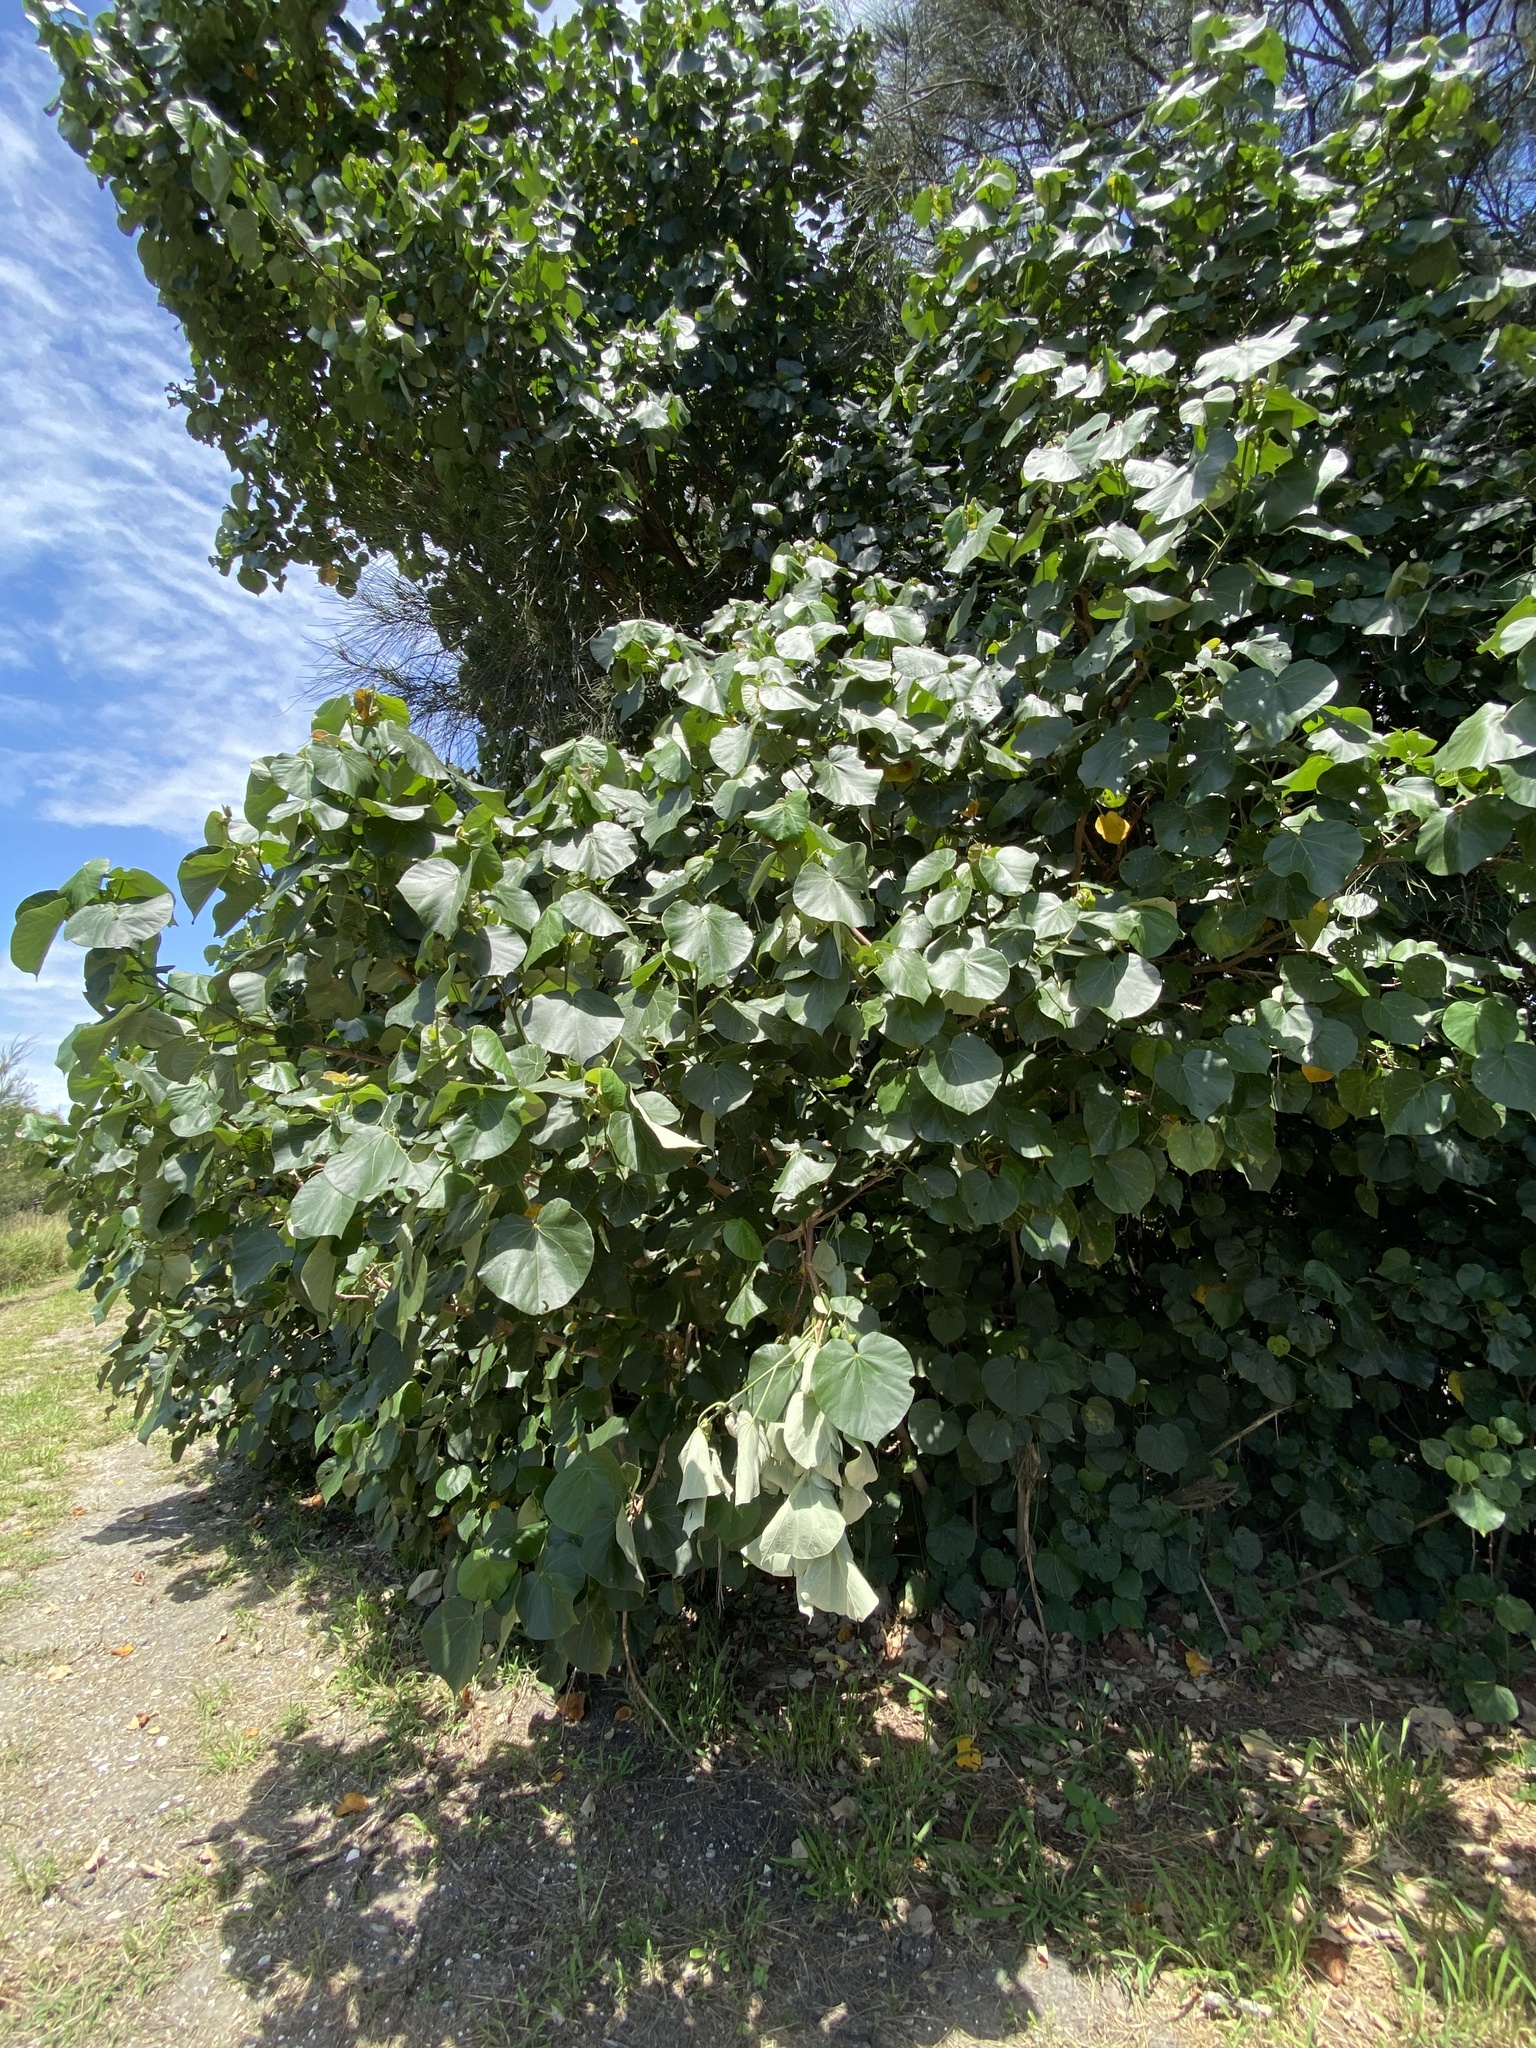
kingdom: Plantae
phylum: Tracheophyta
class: Magnoliopsida
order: Malvales
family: Malvaceae
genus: Talipariti
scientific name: Talipariti tiliaceum
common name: Sea hibiscus
